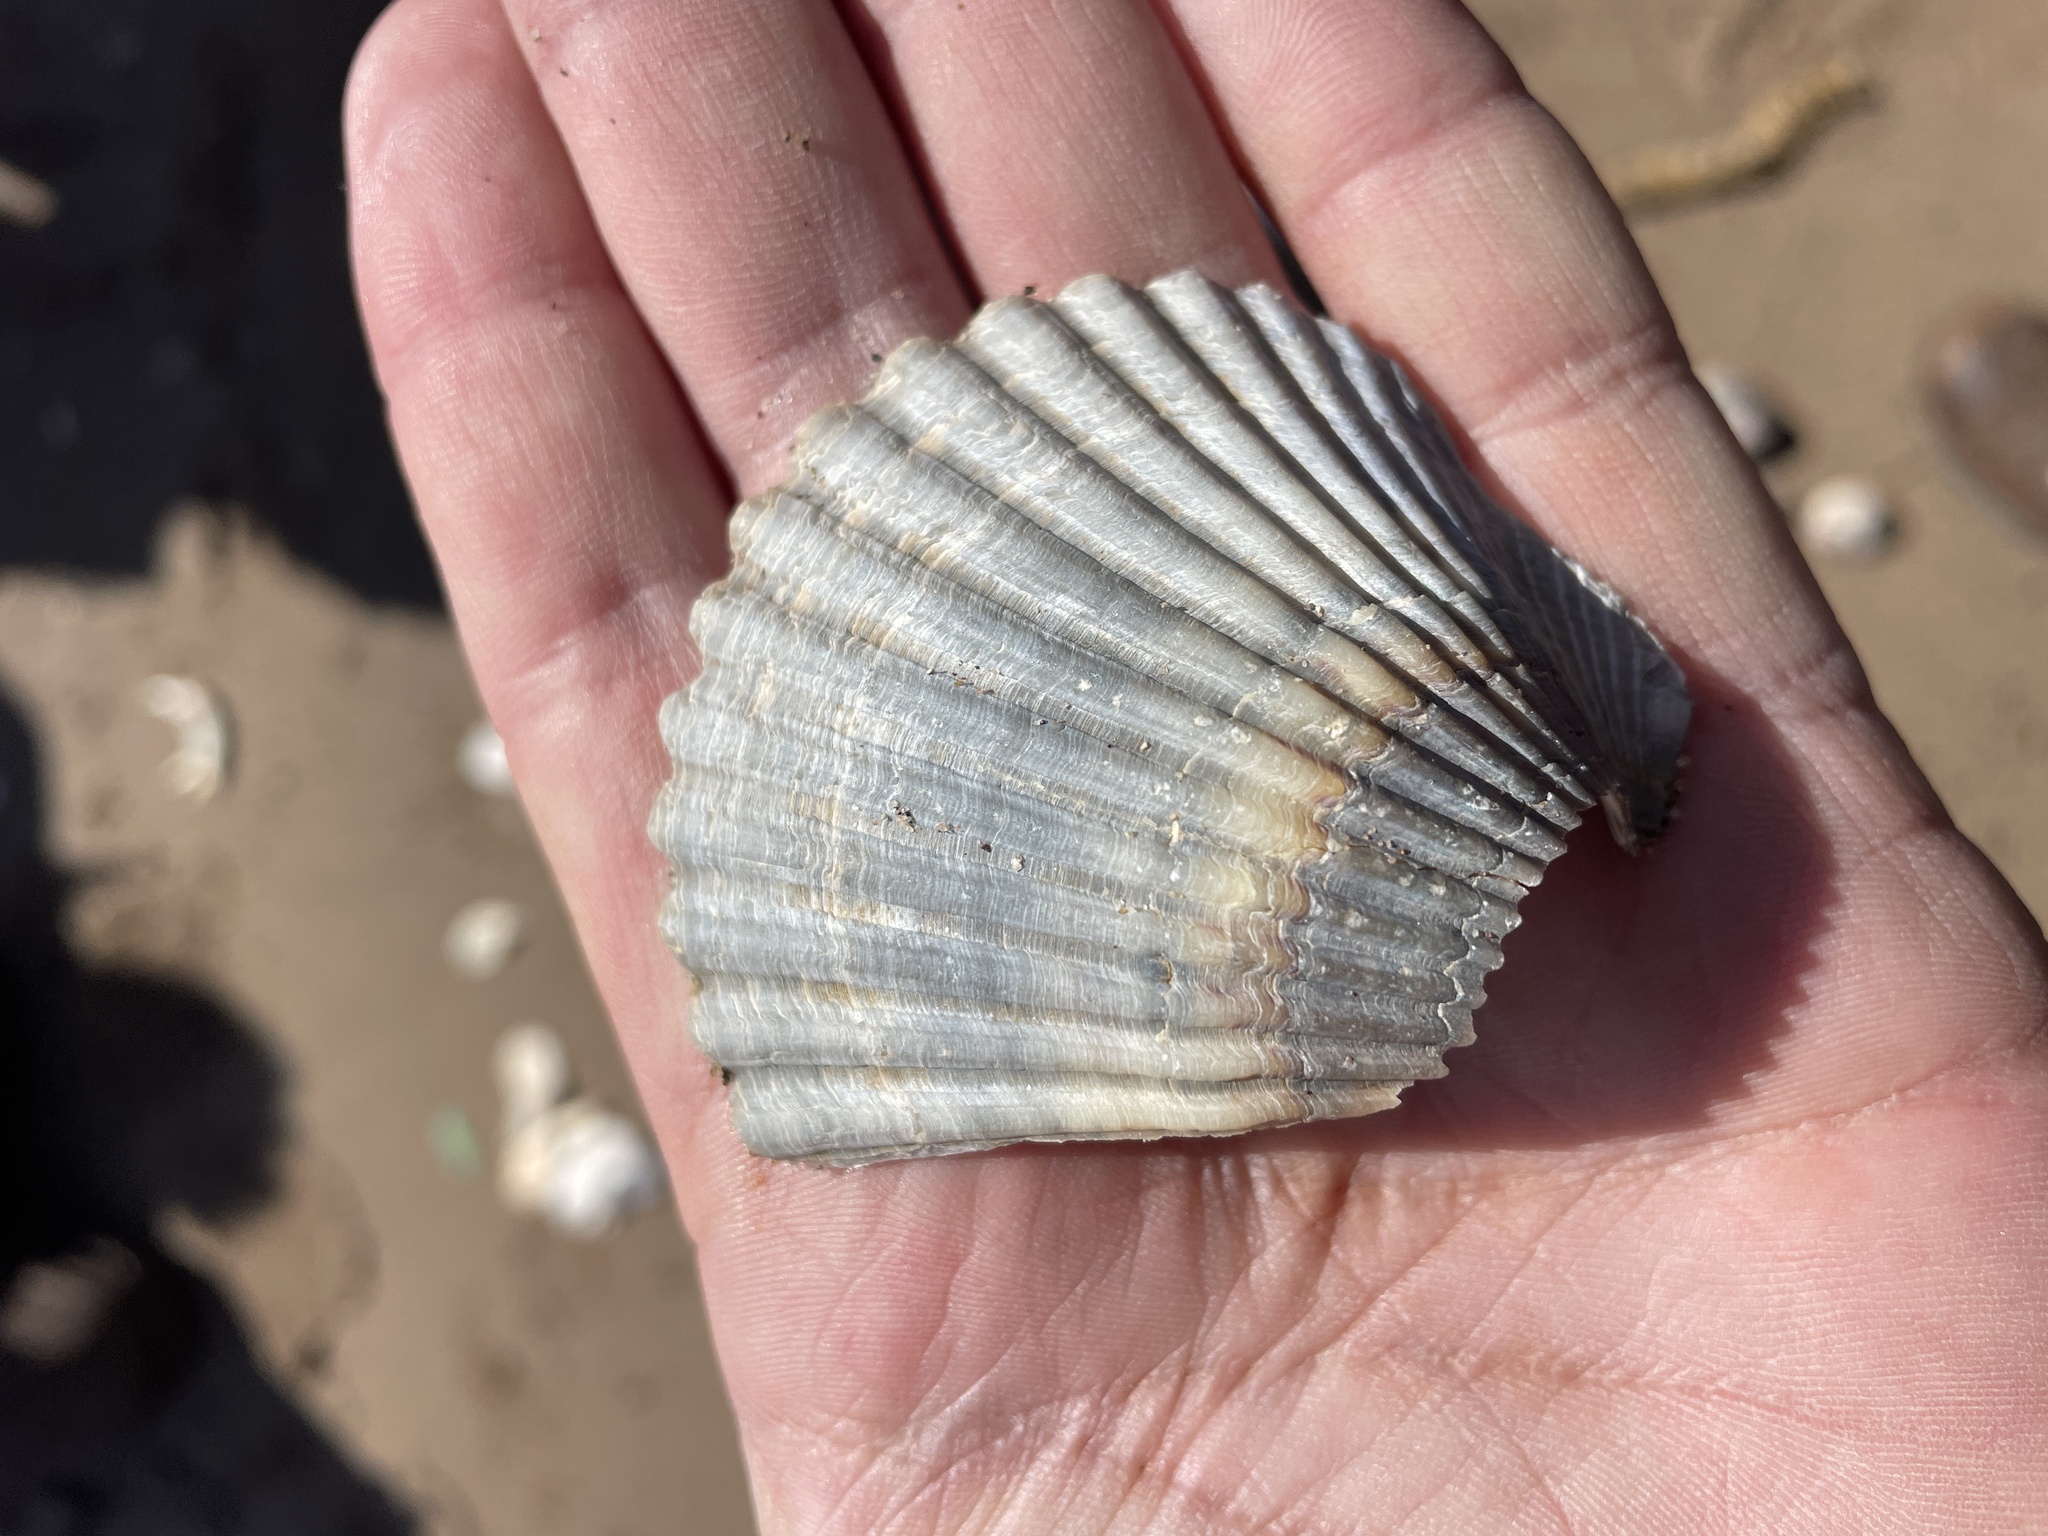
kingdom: Animalia
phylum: Mollusca
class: Bivalvia
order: Pectinida
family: Pectinidae
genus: Argopecten
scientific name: Argopecten irradians
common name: Atlantic bay scallop
